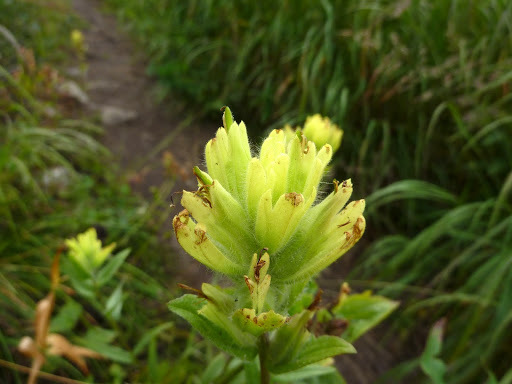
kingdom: Plantae
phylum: Tracheophyta
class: Magnoliopsida
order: Lamiales
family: Orobanchaceae
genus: Castilleja
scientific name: Castilleja unalaschcensis
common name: Unalaska paintbrush
